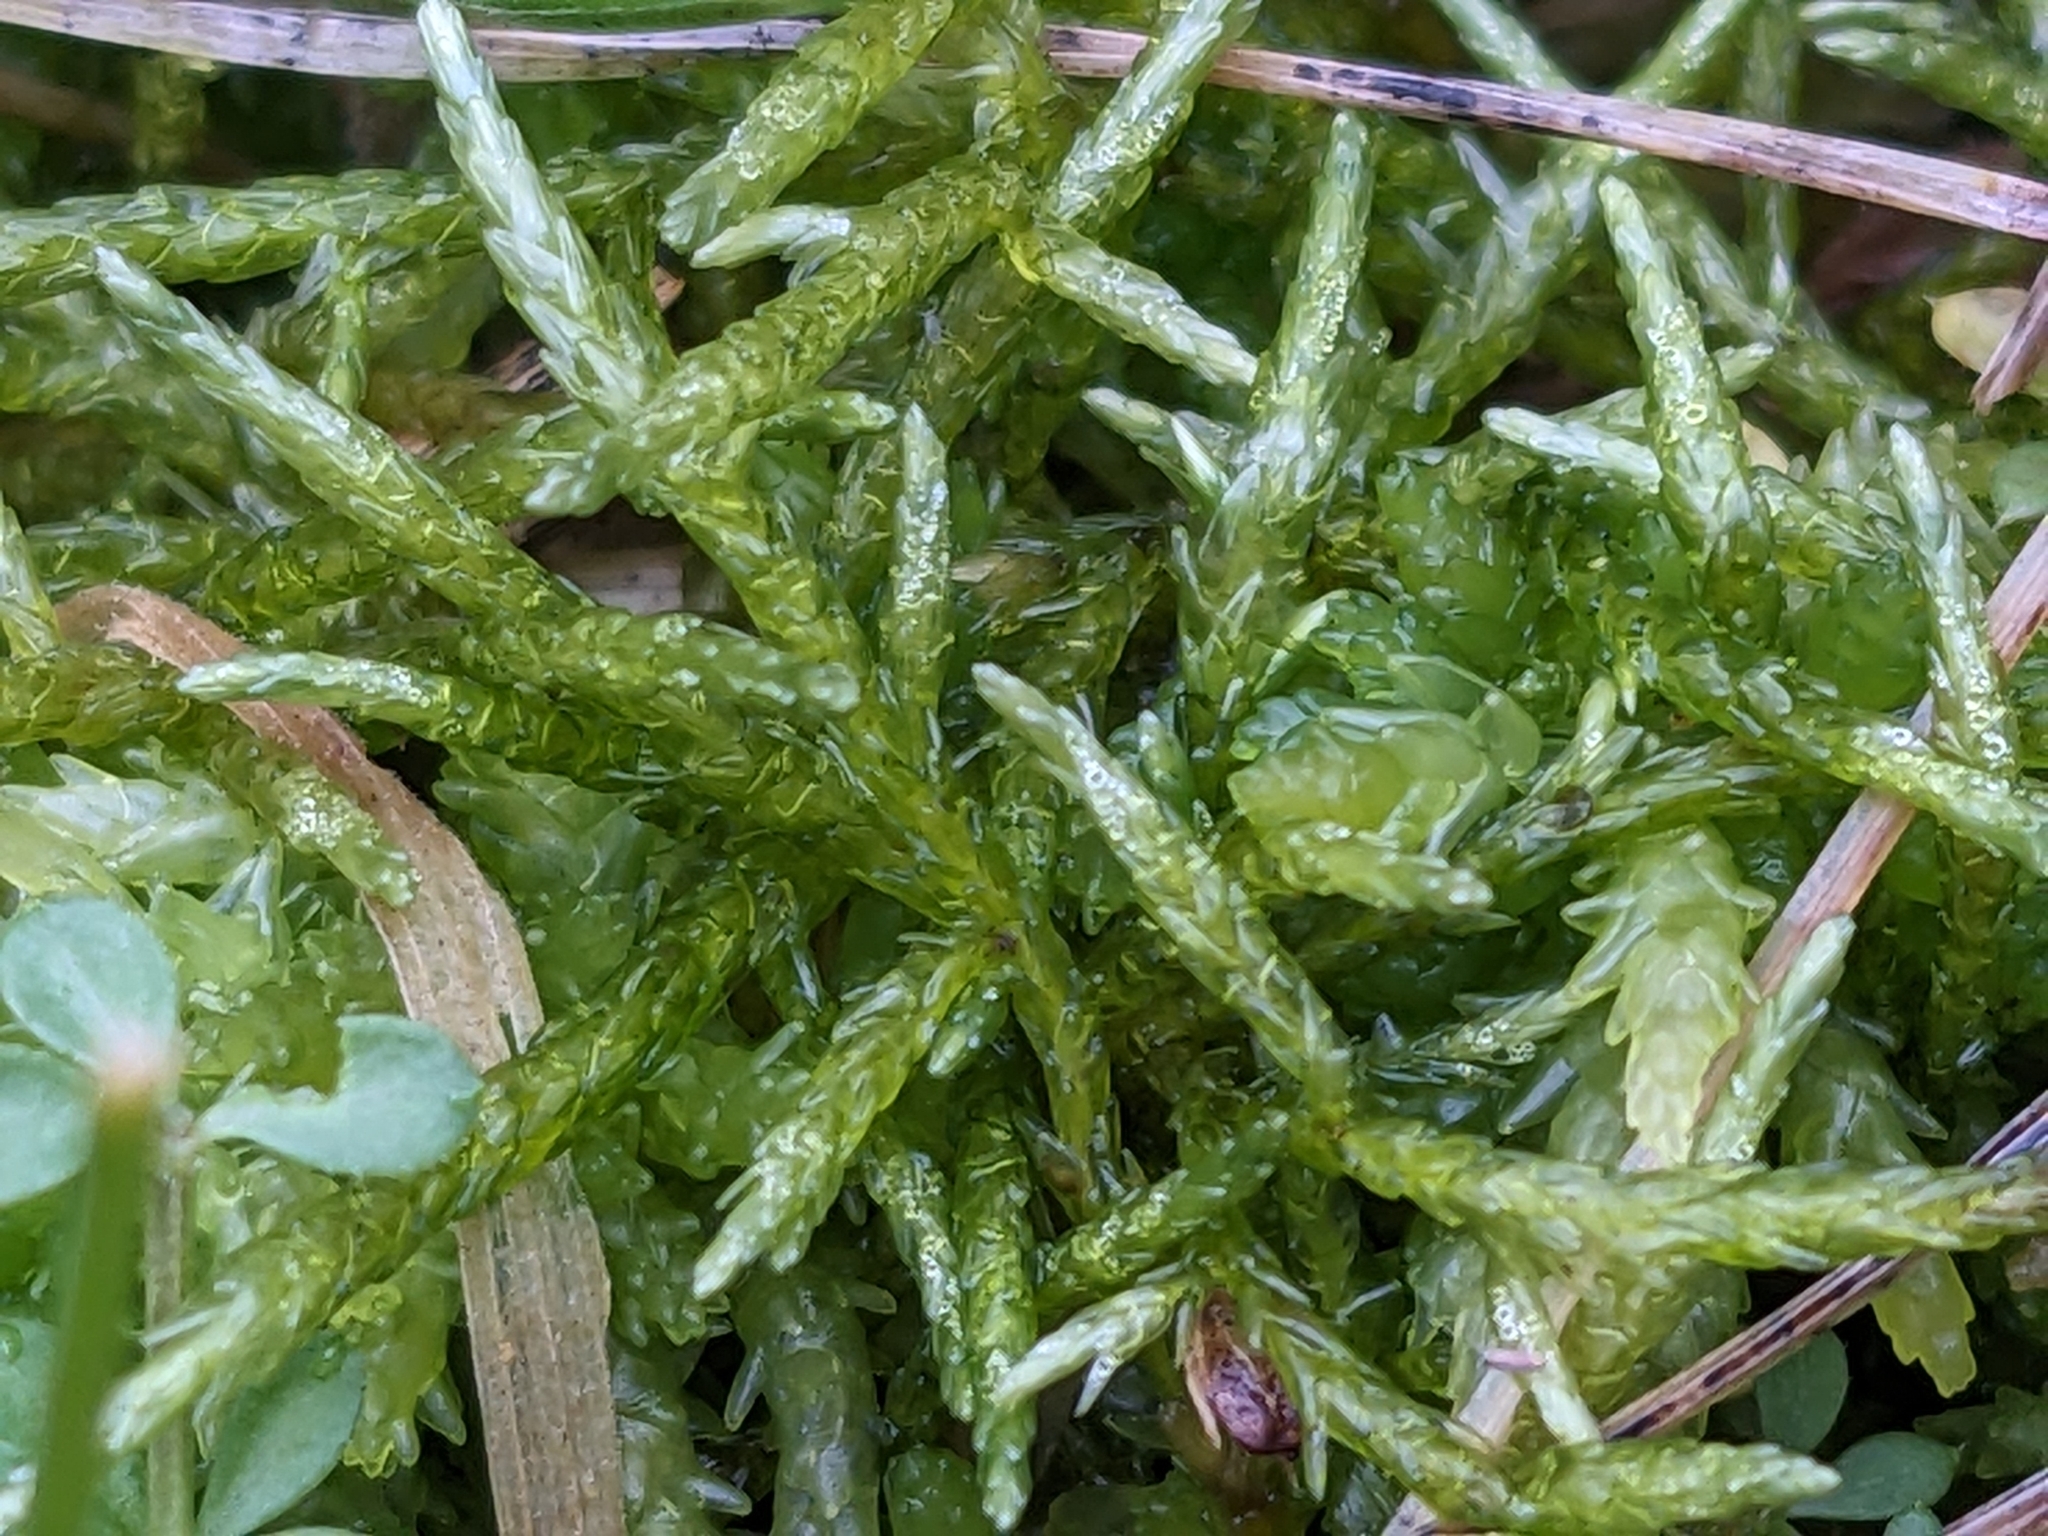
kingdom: Plantae
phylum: Bryophyta
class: Bryopsida
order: Hypnales
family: Calliergonaceae
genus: Straminergon
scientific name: Straminergon stramineum
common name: Straw moss
